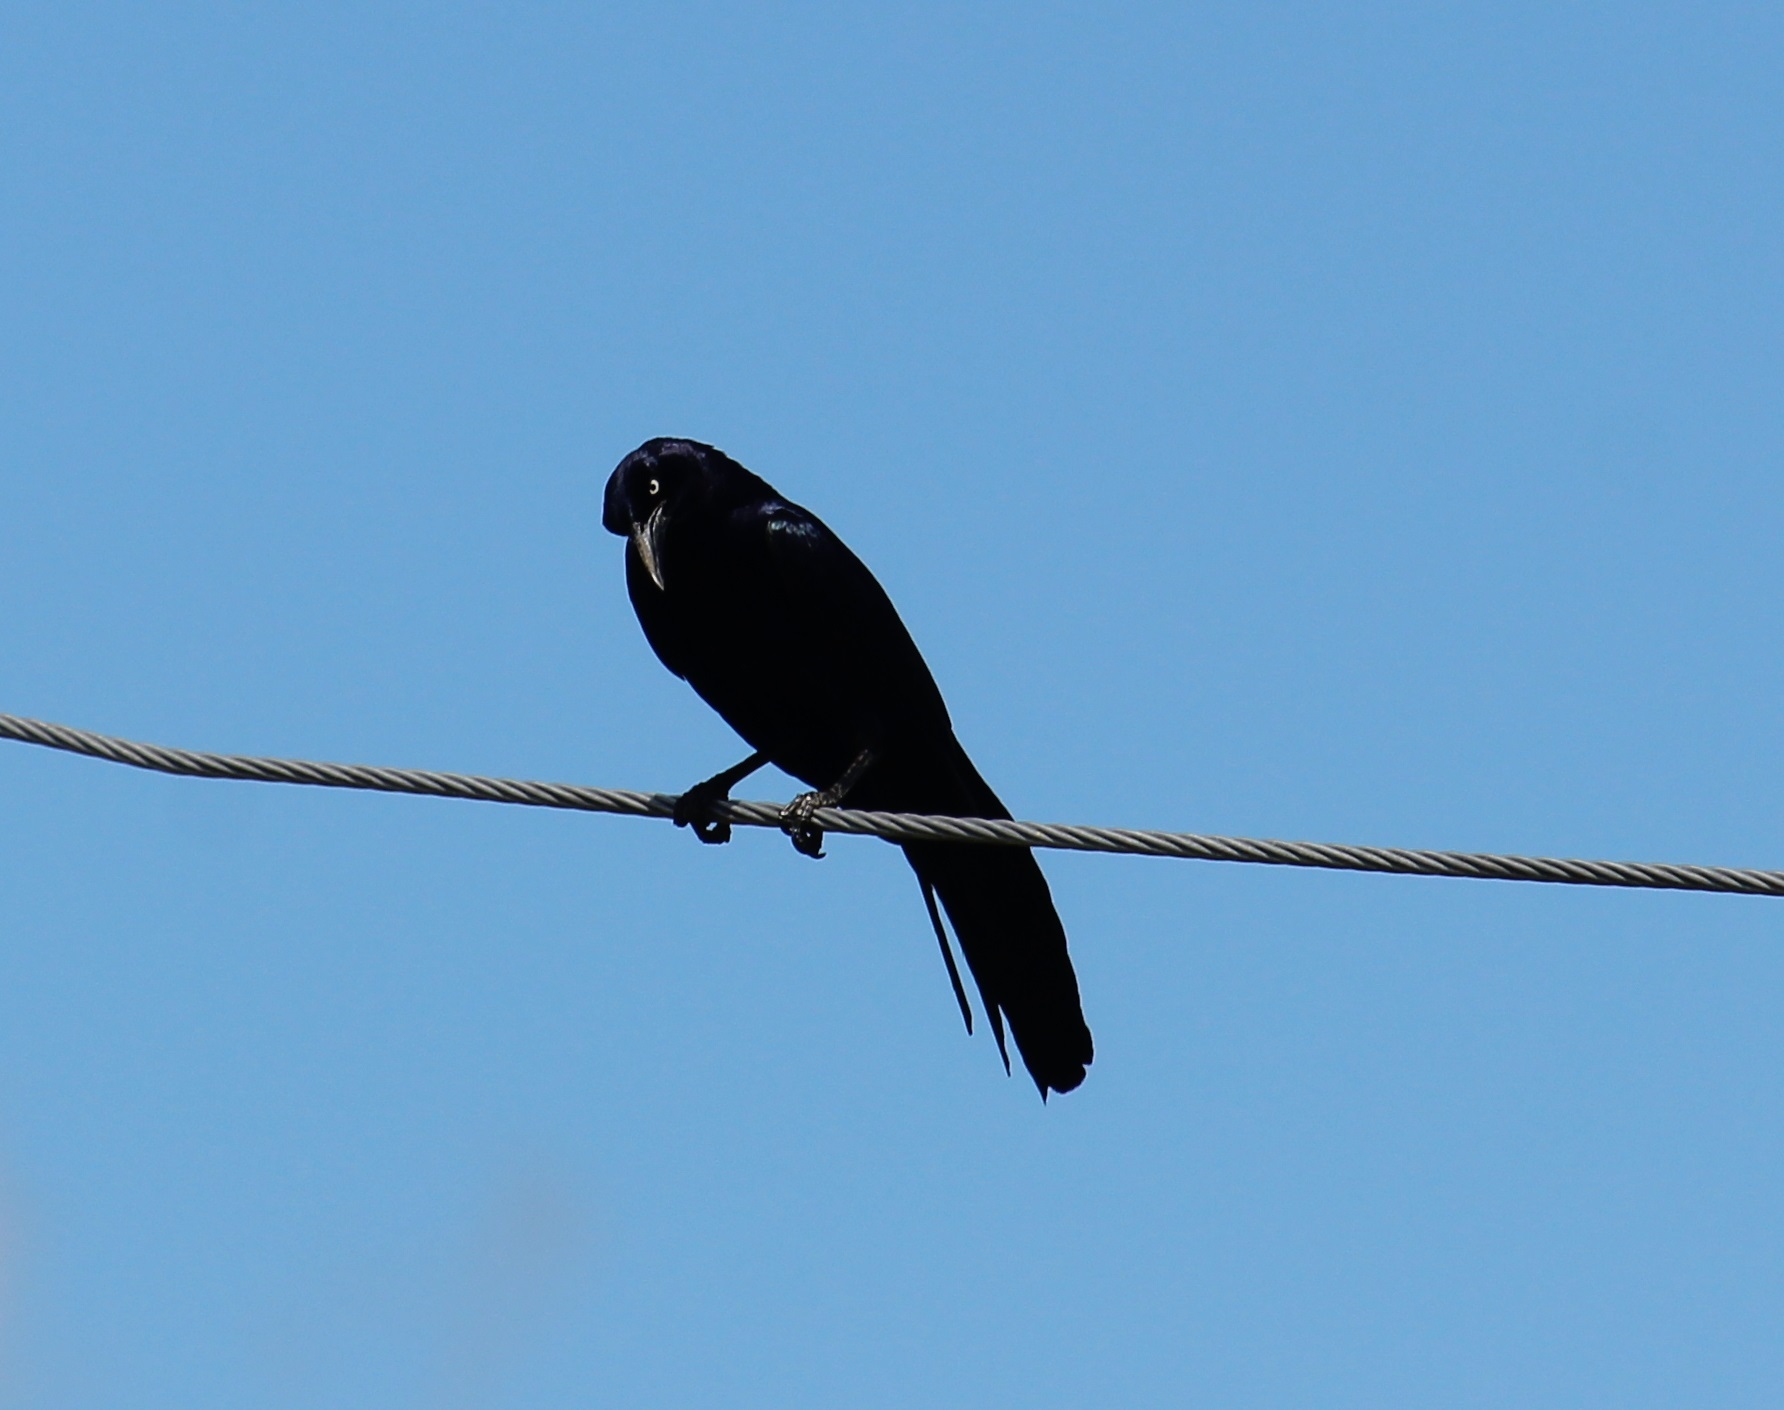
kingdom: Animalia
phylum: Chordata
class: Aves
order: Passeriformes
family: Icteridae
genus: Quiscalus
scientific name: Quiscalus mexicanus
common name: Great-tailed grackle
